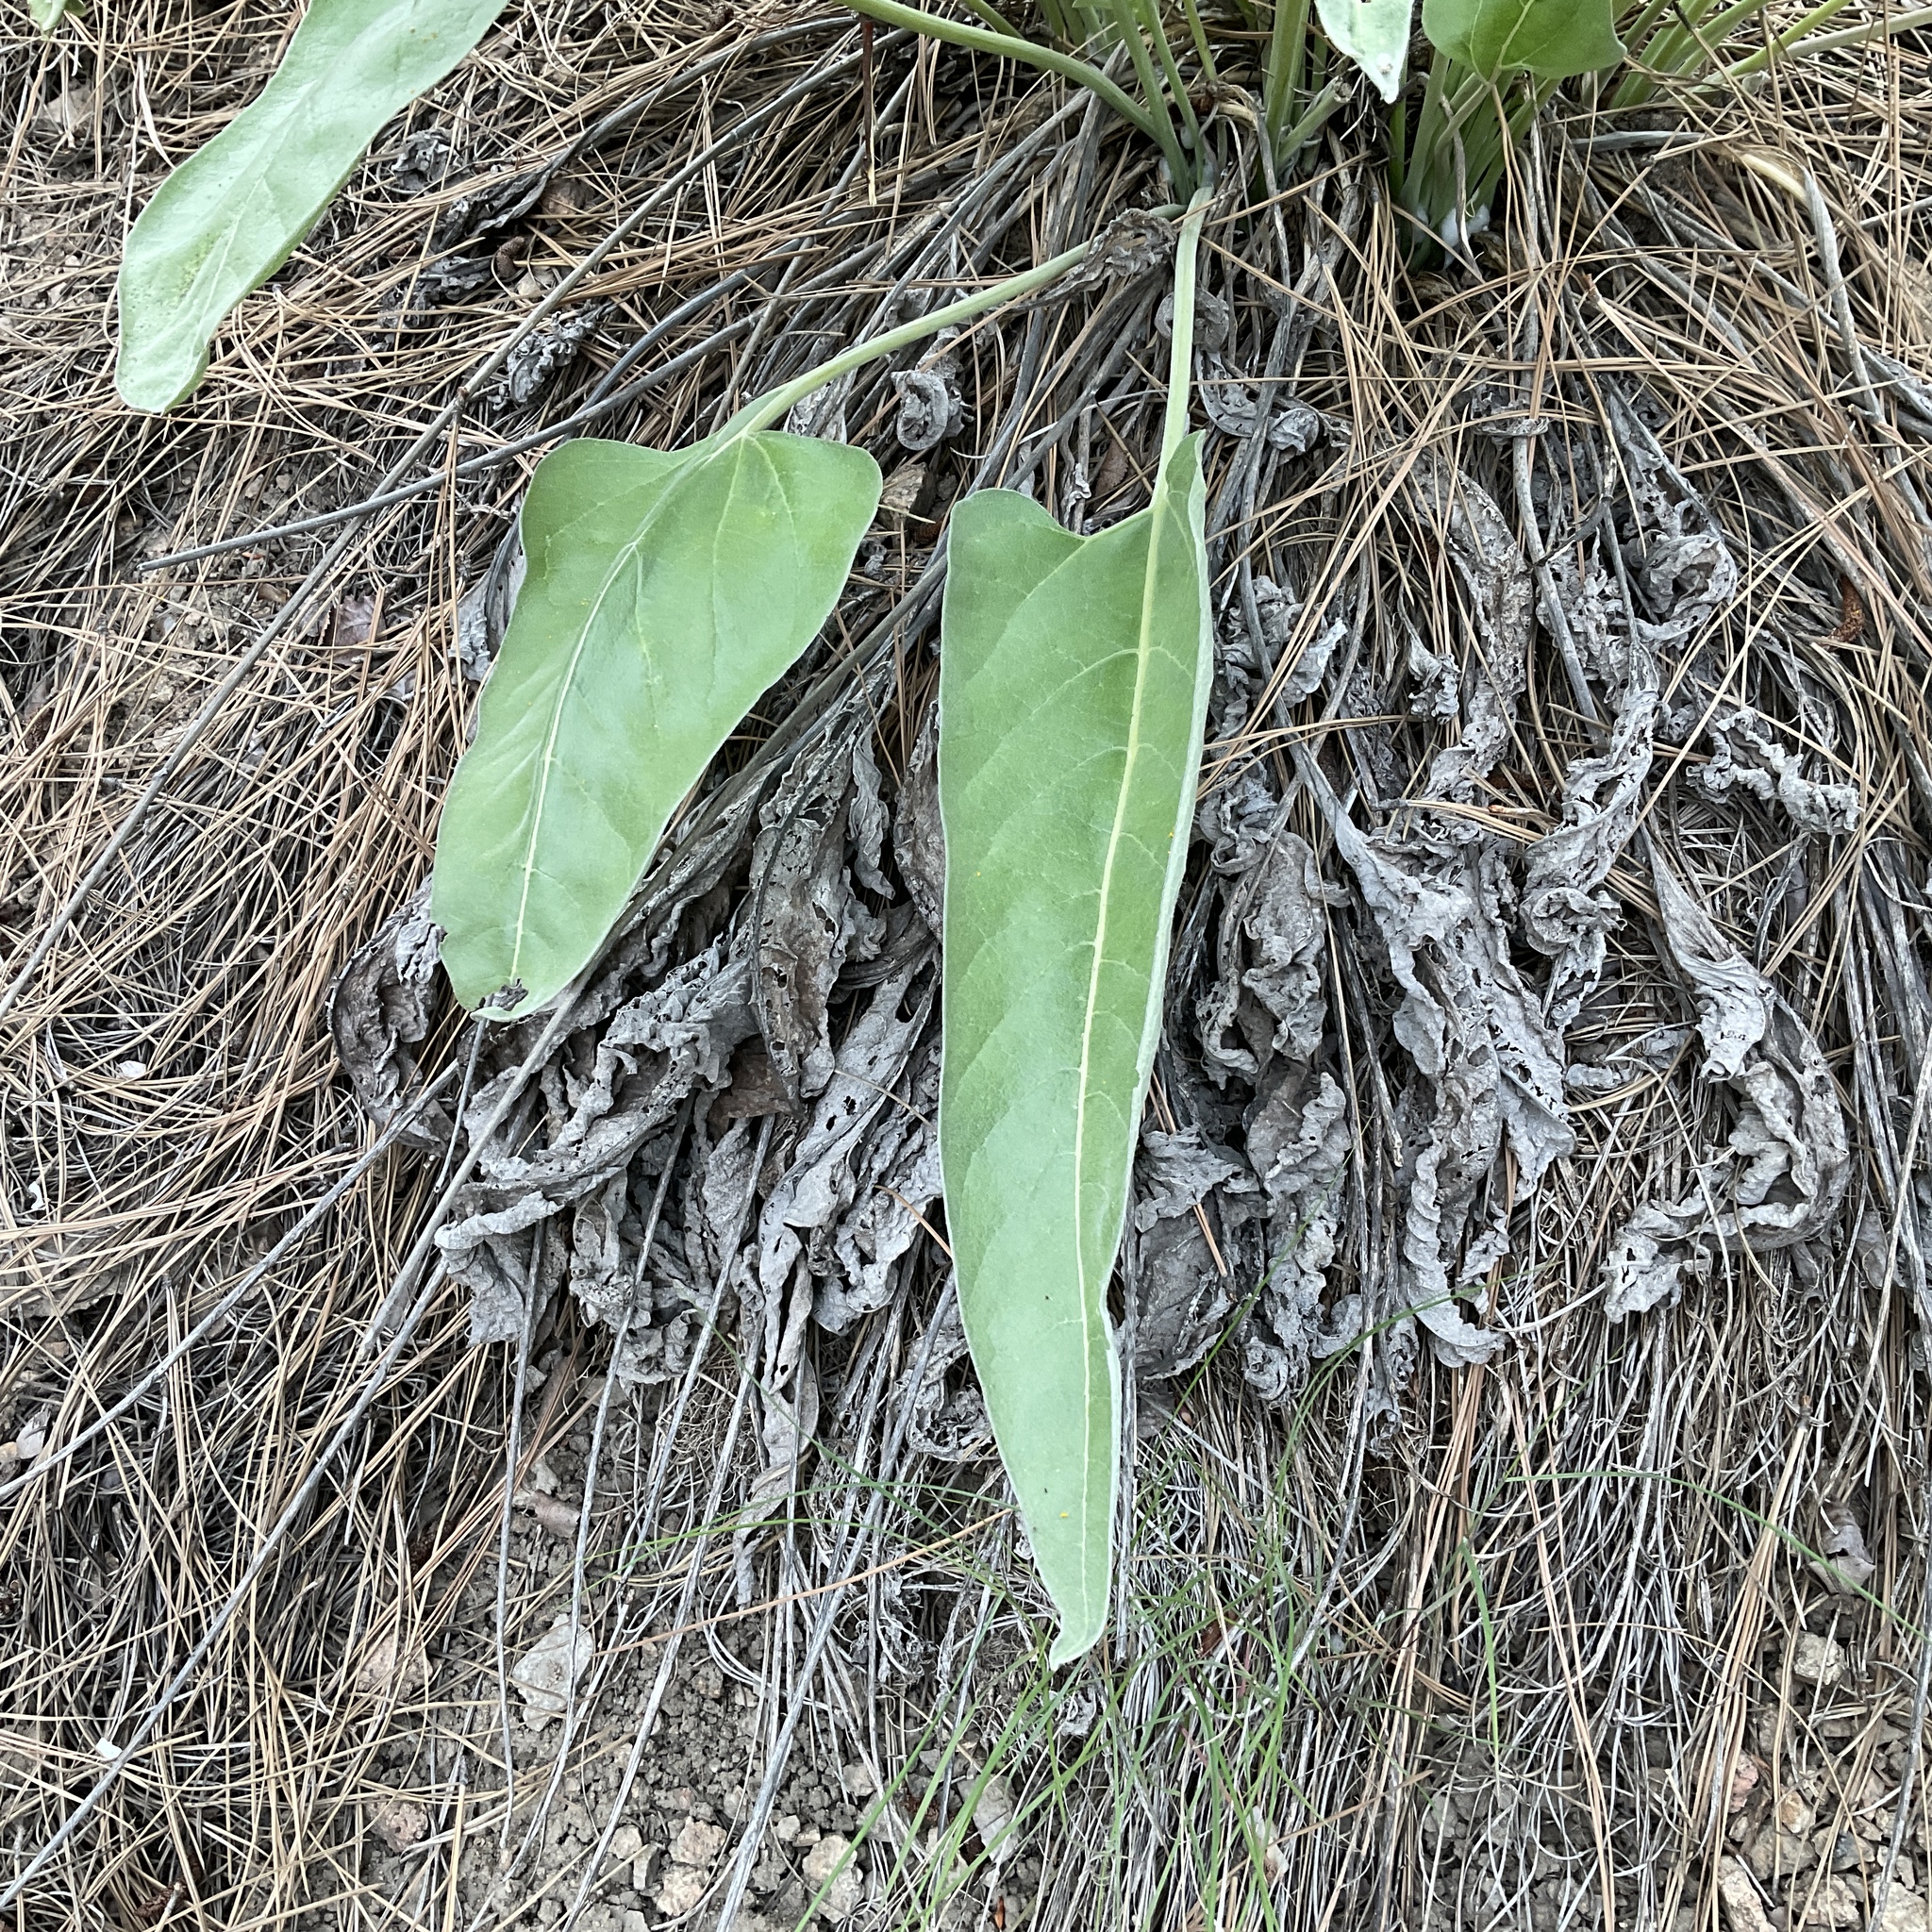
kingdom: Plantae
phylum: Tracheophyta
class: Magnoliopsida
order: Asterales
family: Asteraceae
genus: Wyethia
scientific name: Wyethia sagittata
